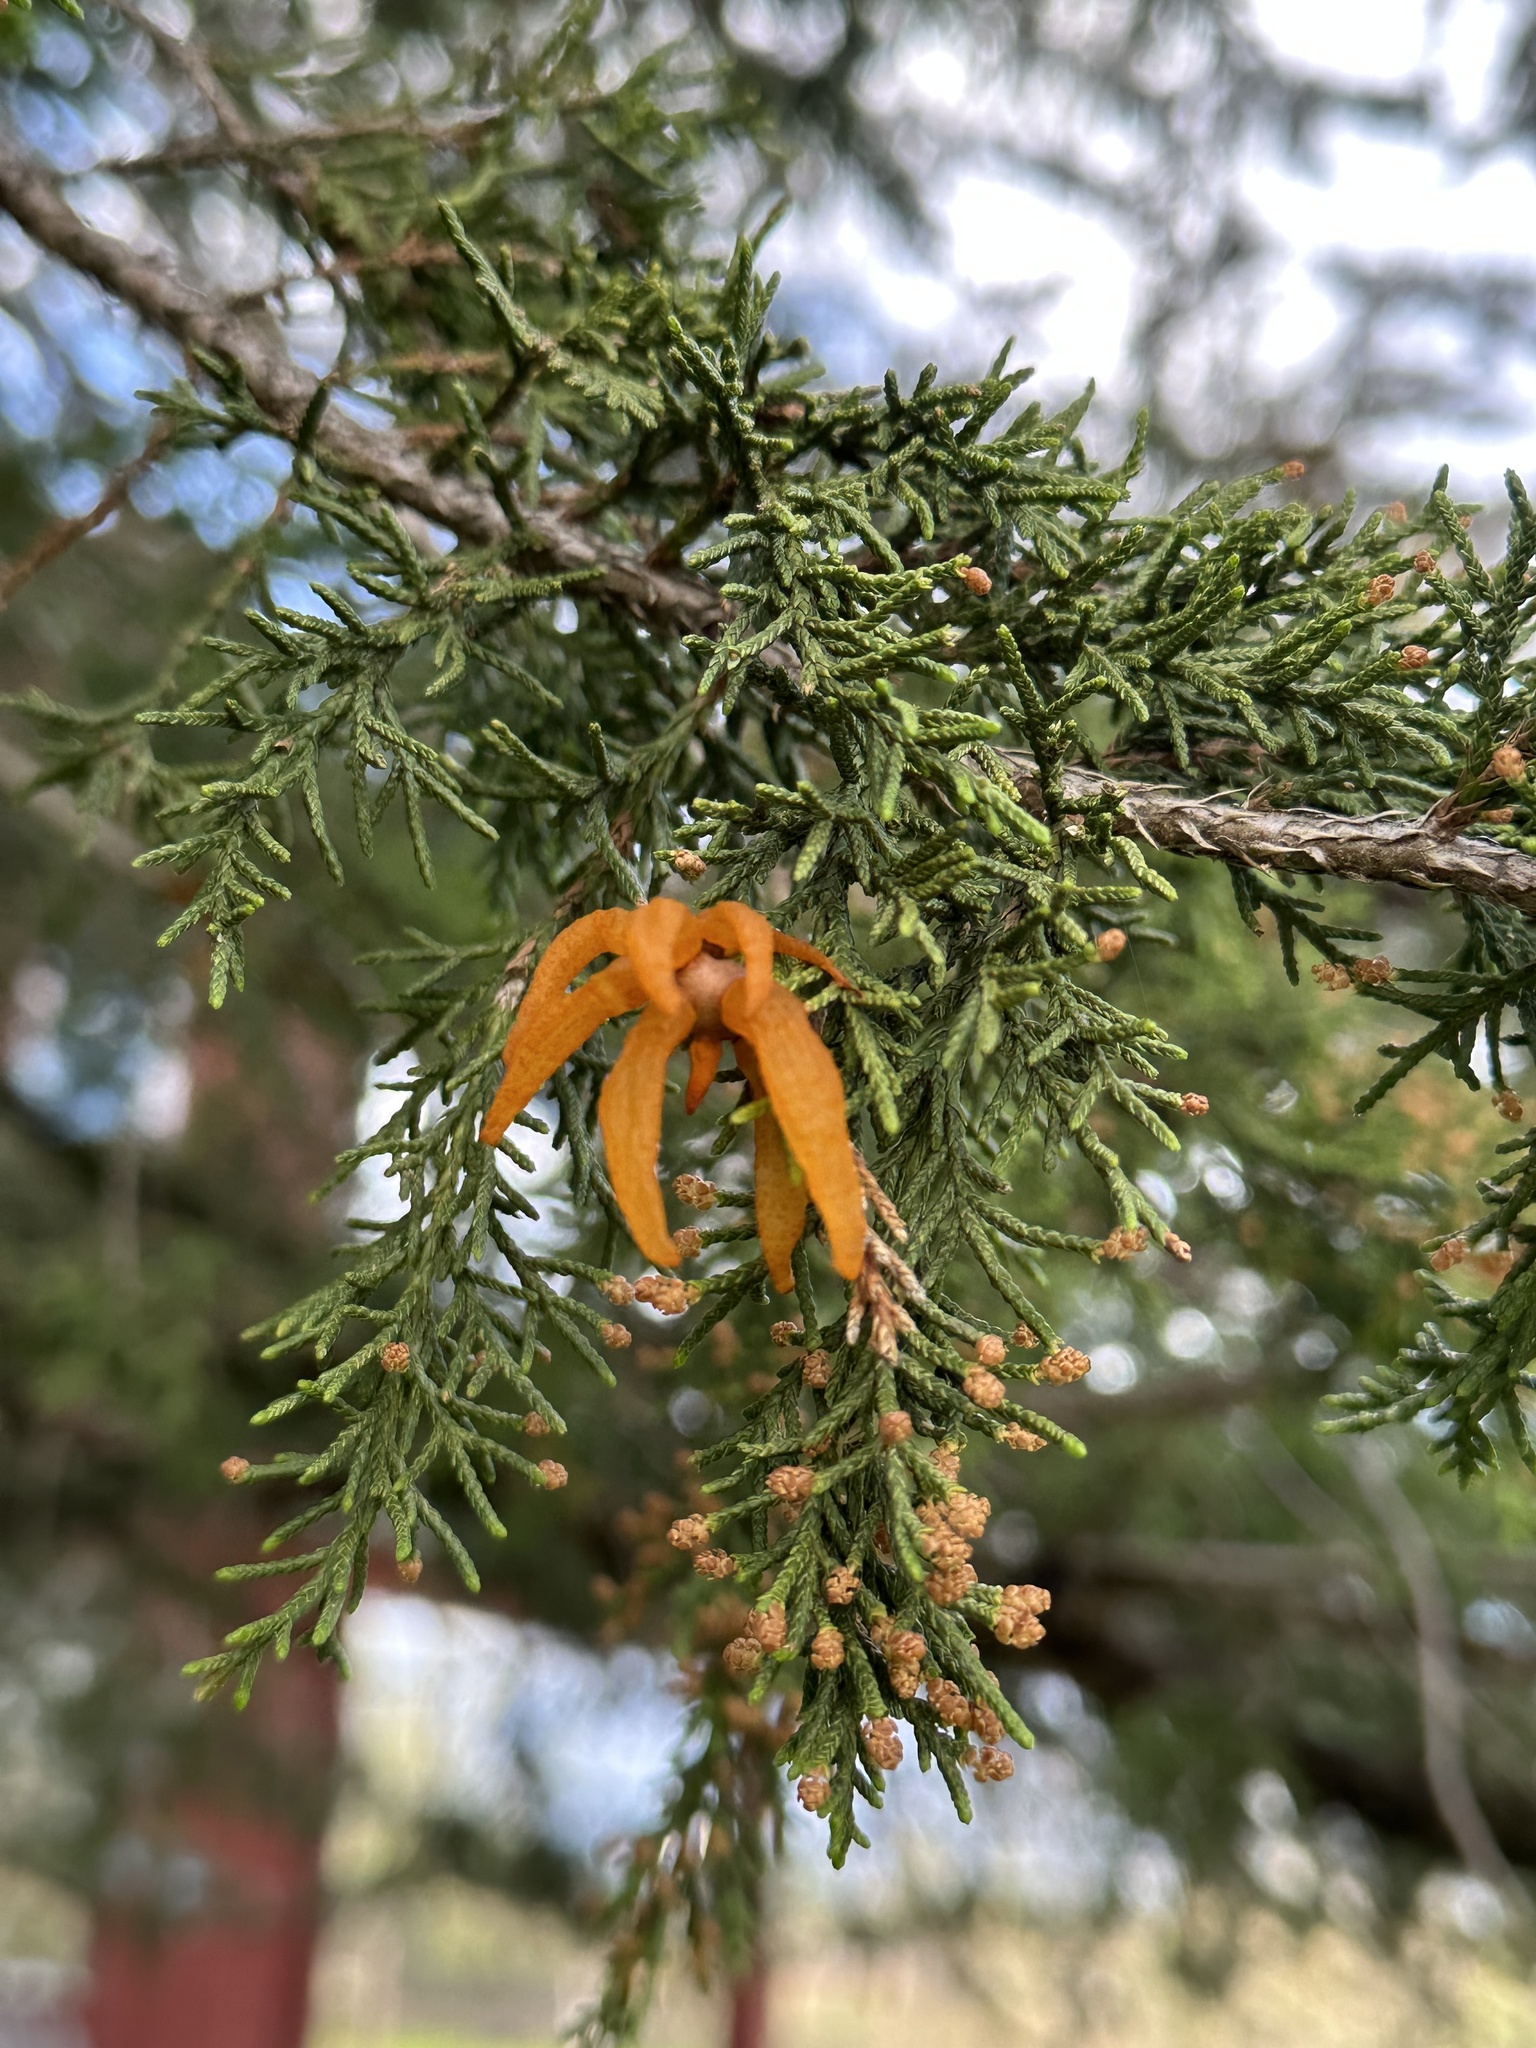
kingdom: Fungi
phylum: Basidiomycota
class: Pucciniomycetes
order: Pucciniales
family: Gymnosporangiaceae
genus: Gymnosporangium
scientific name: Gymnosporangium juniperi-virginianae
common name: Juniper-apple rust
